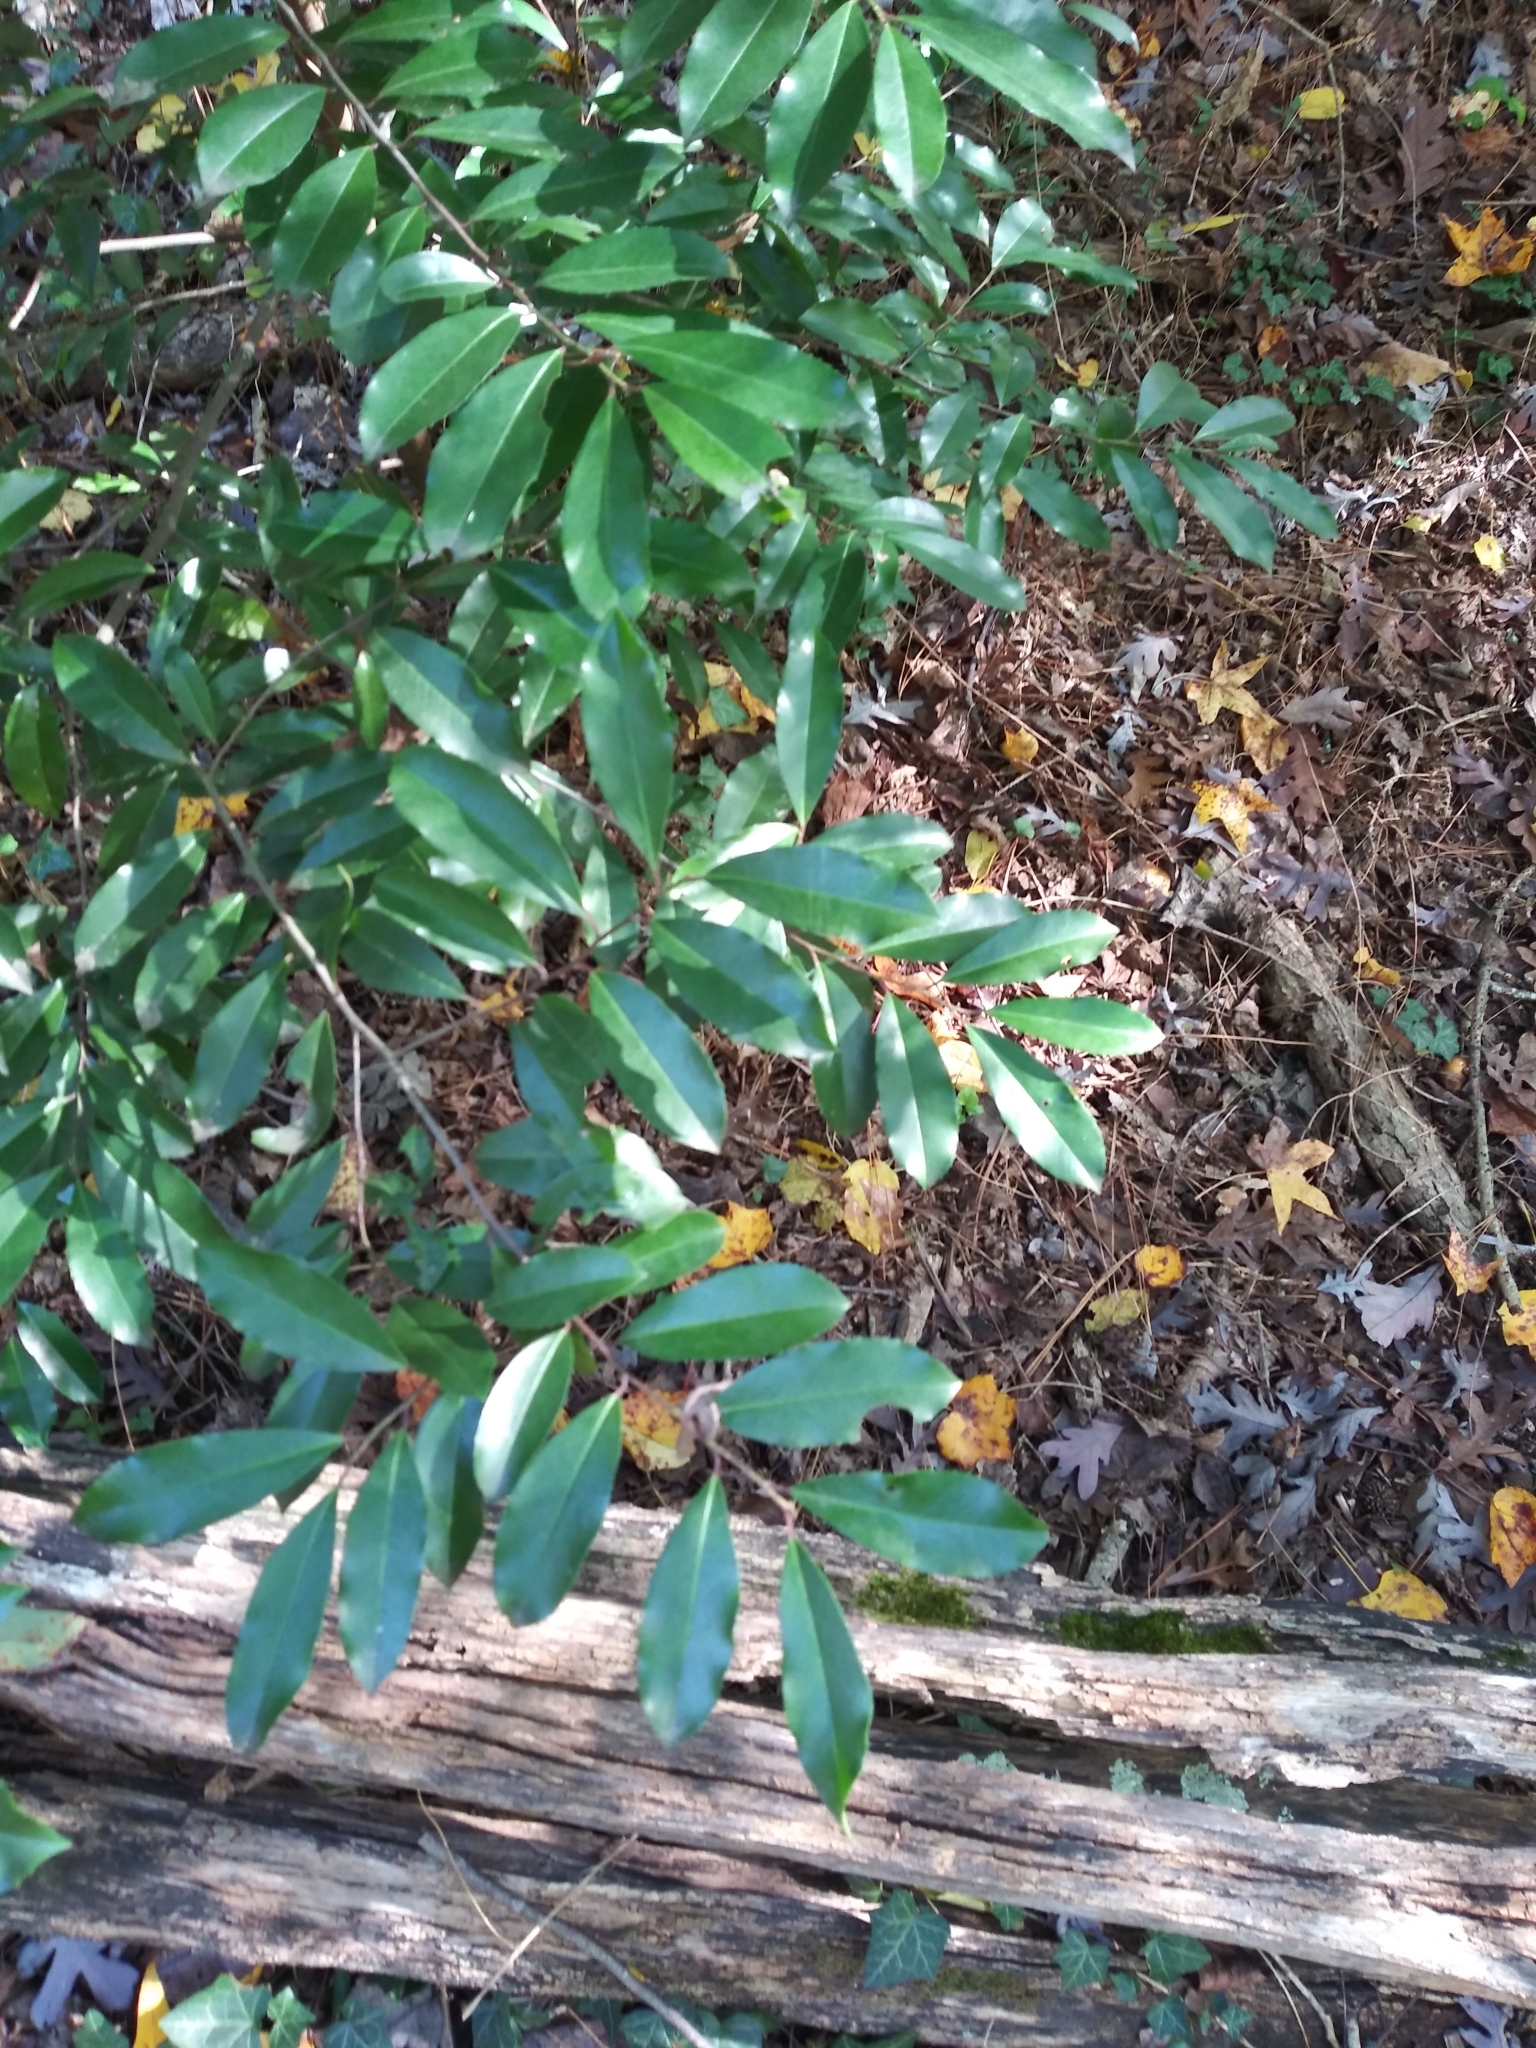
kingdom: Plantae
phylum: Tracheophyta
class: Magnoliopsida
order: Rosales
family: Rosaceae
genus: Prunus
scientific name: Prunus caroliniana
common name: Carolina laurel cherry
